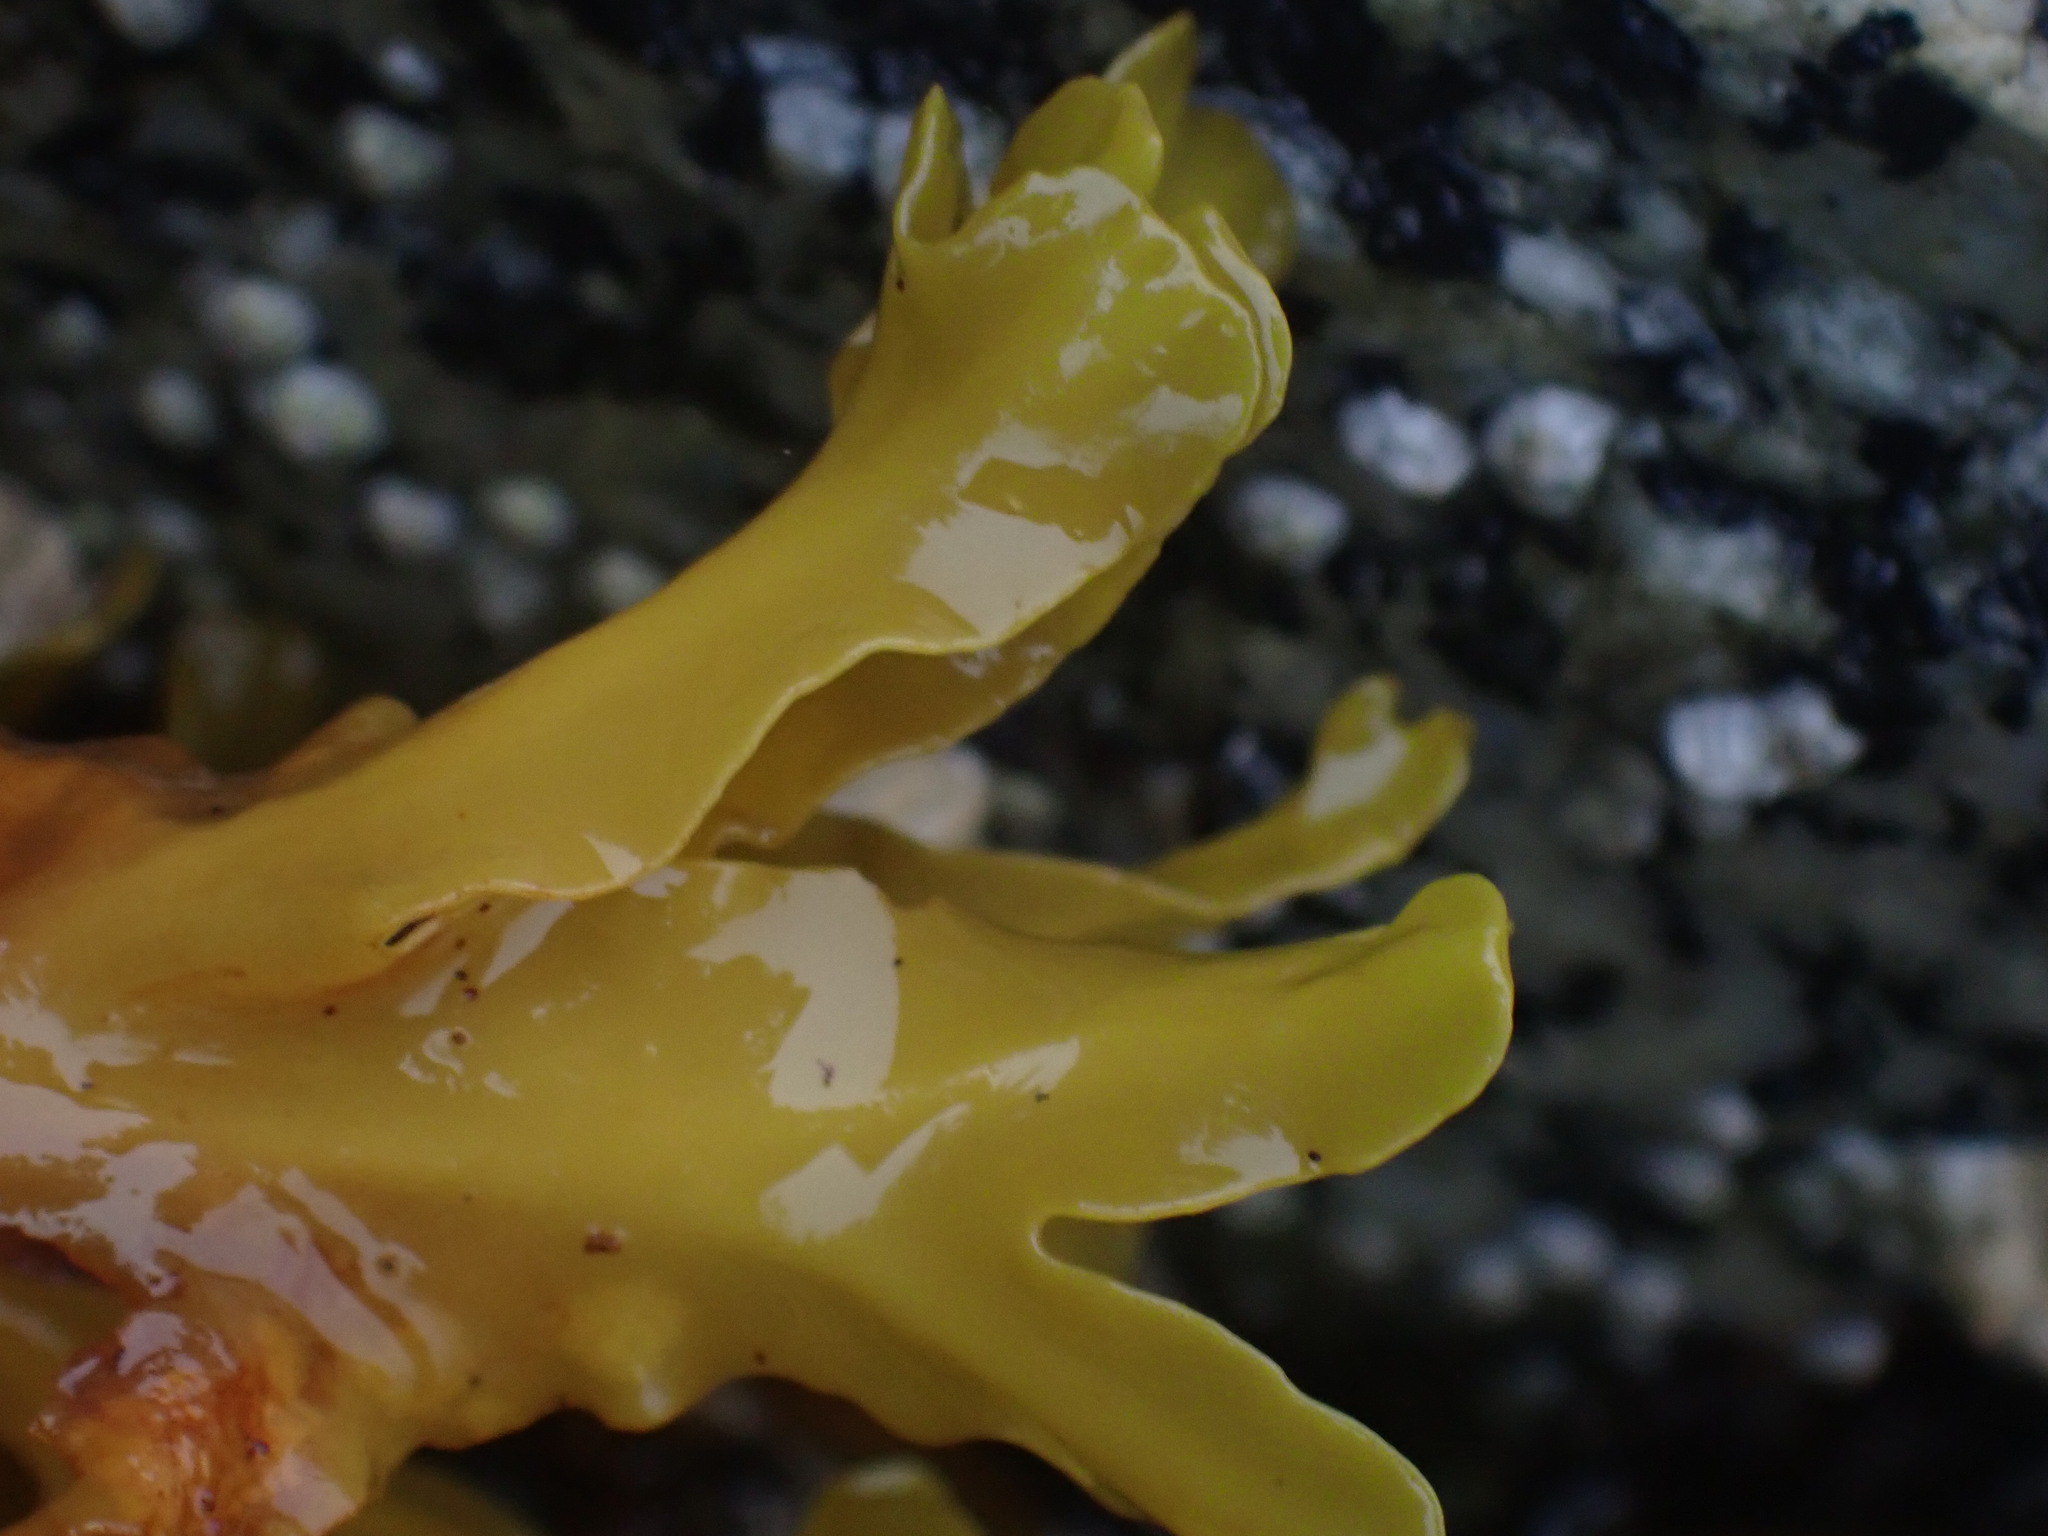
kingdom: Chromista
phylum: Ochrophyta
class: Phaeophyceae
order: Fucales
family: Fucaceae
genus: Fucus
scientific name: Fucus distichus
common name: Rockweed
